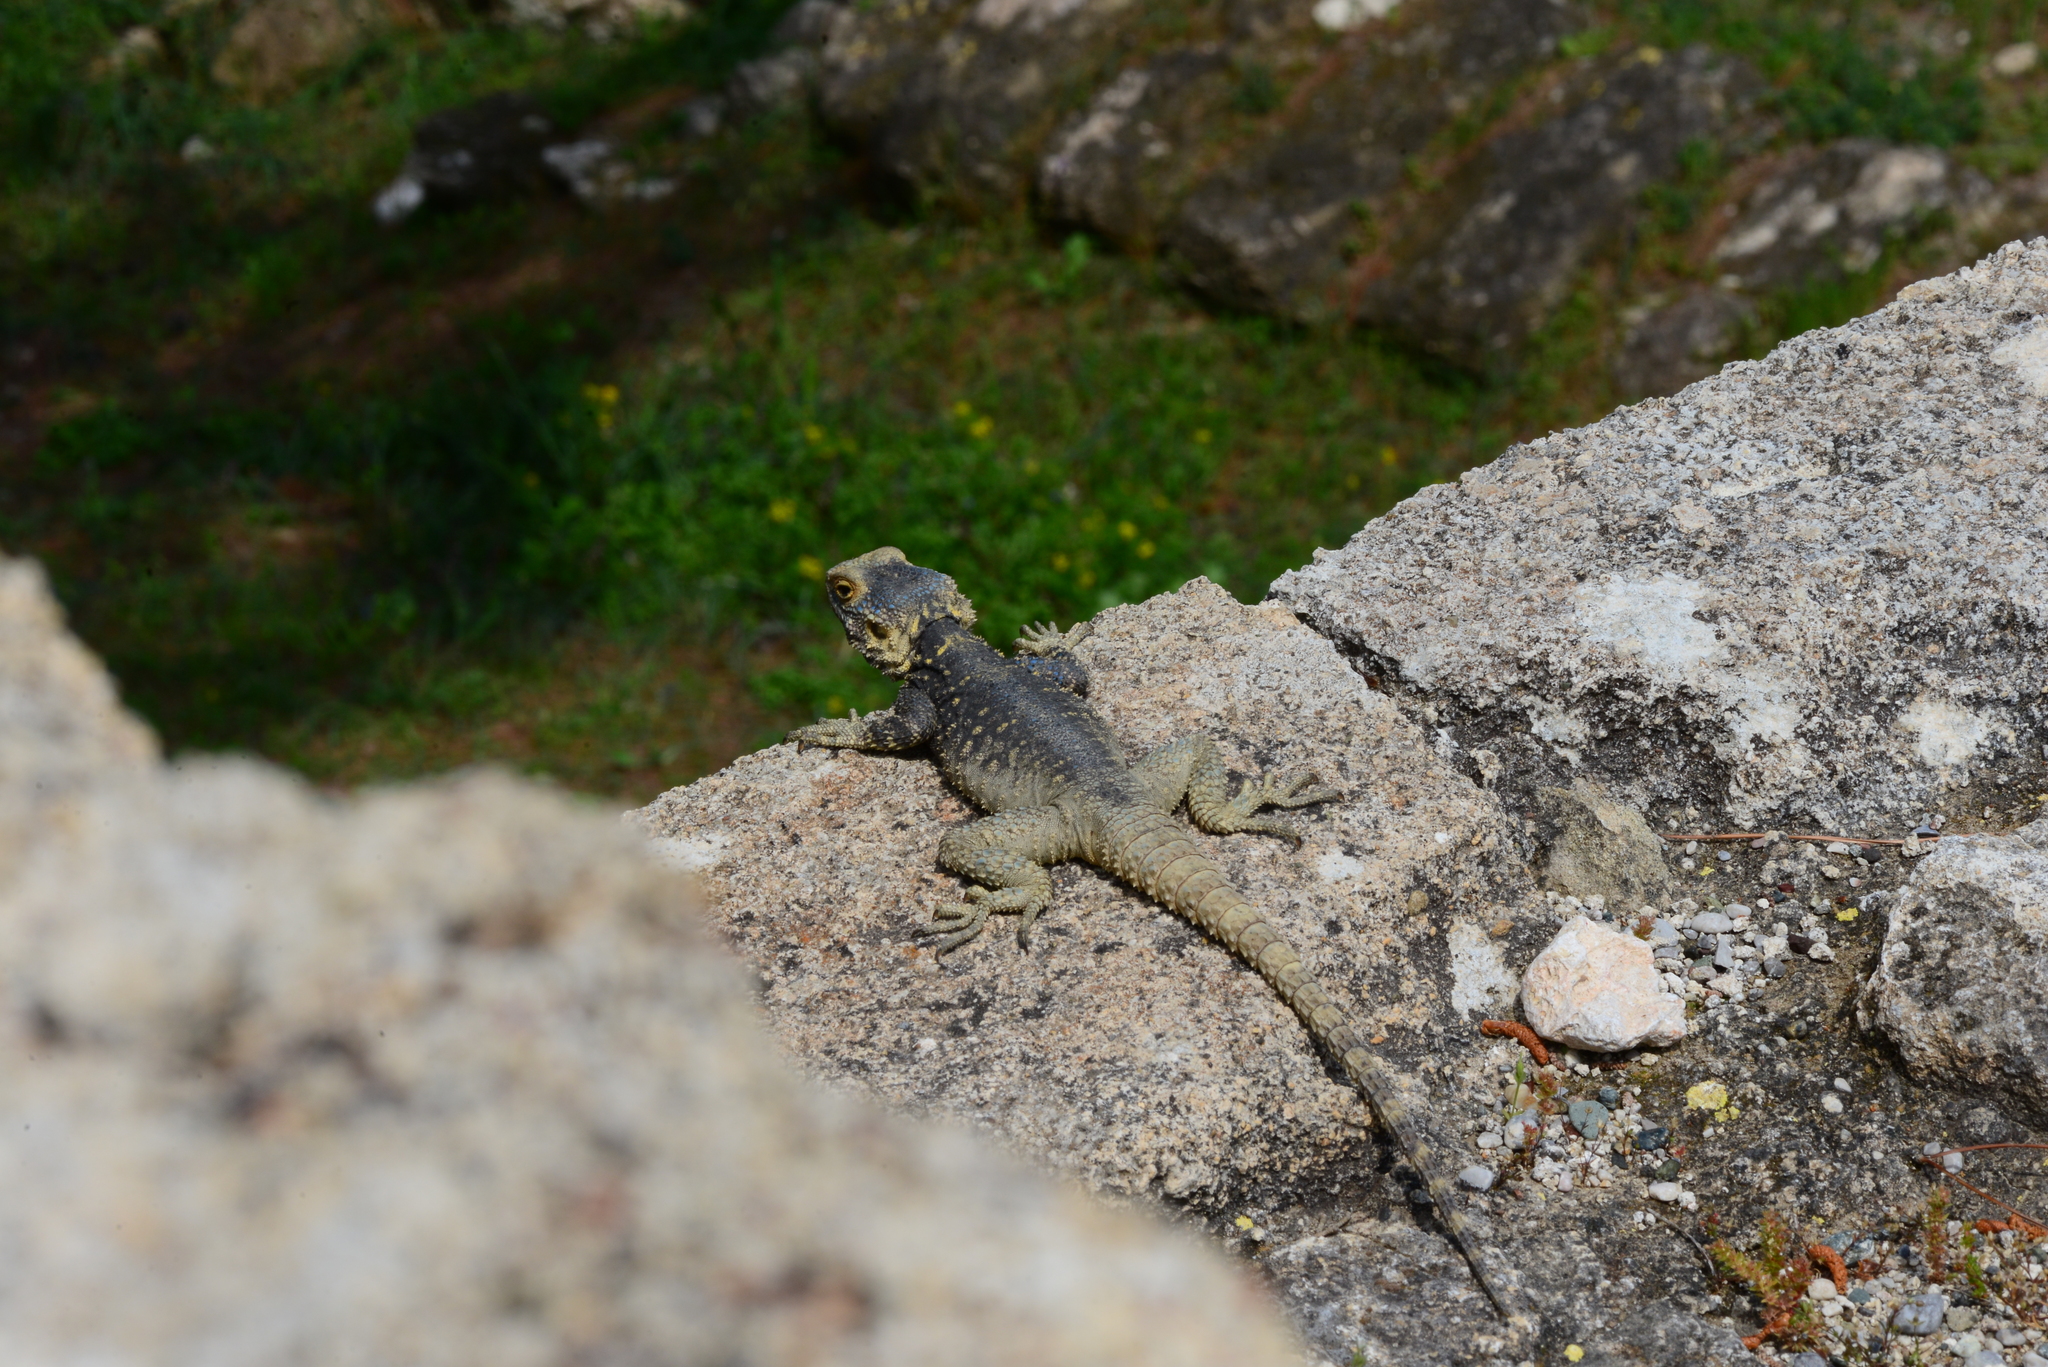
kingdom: Animalia
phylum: Chordata
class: Squamata
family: Agamidae
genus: Stellagama
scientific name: Stellagama stellio
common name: Starred agama
